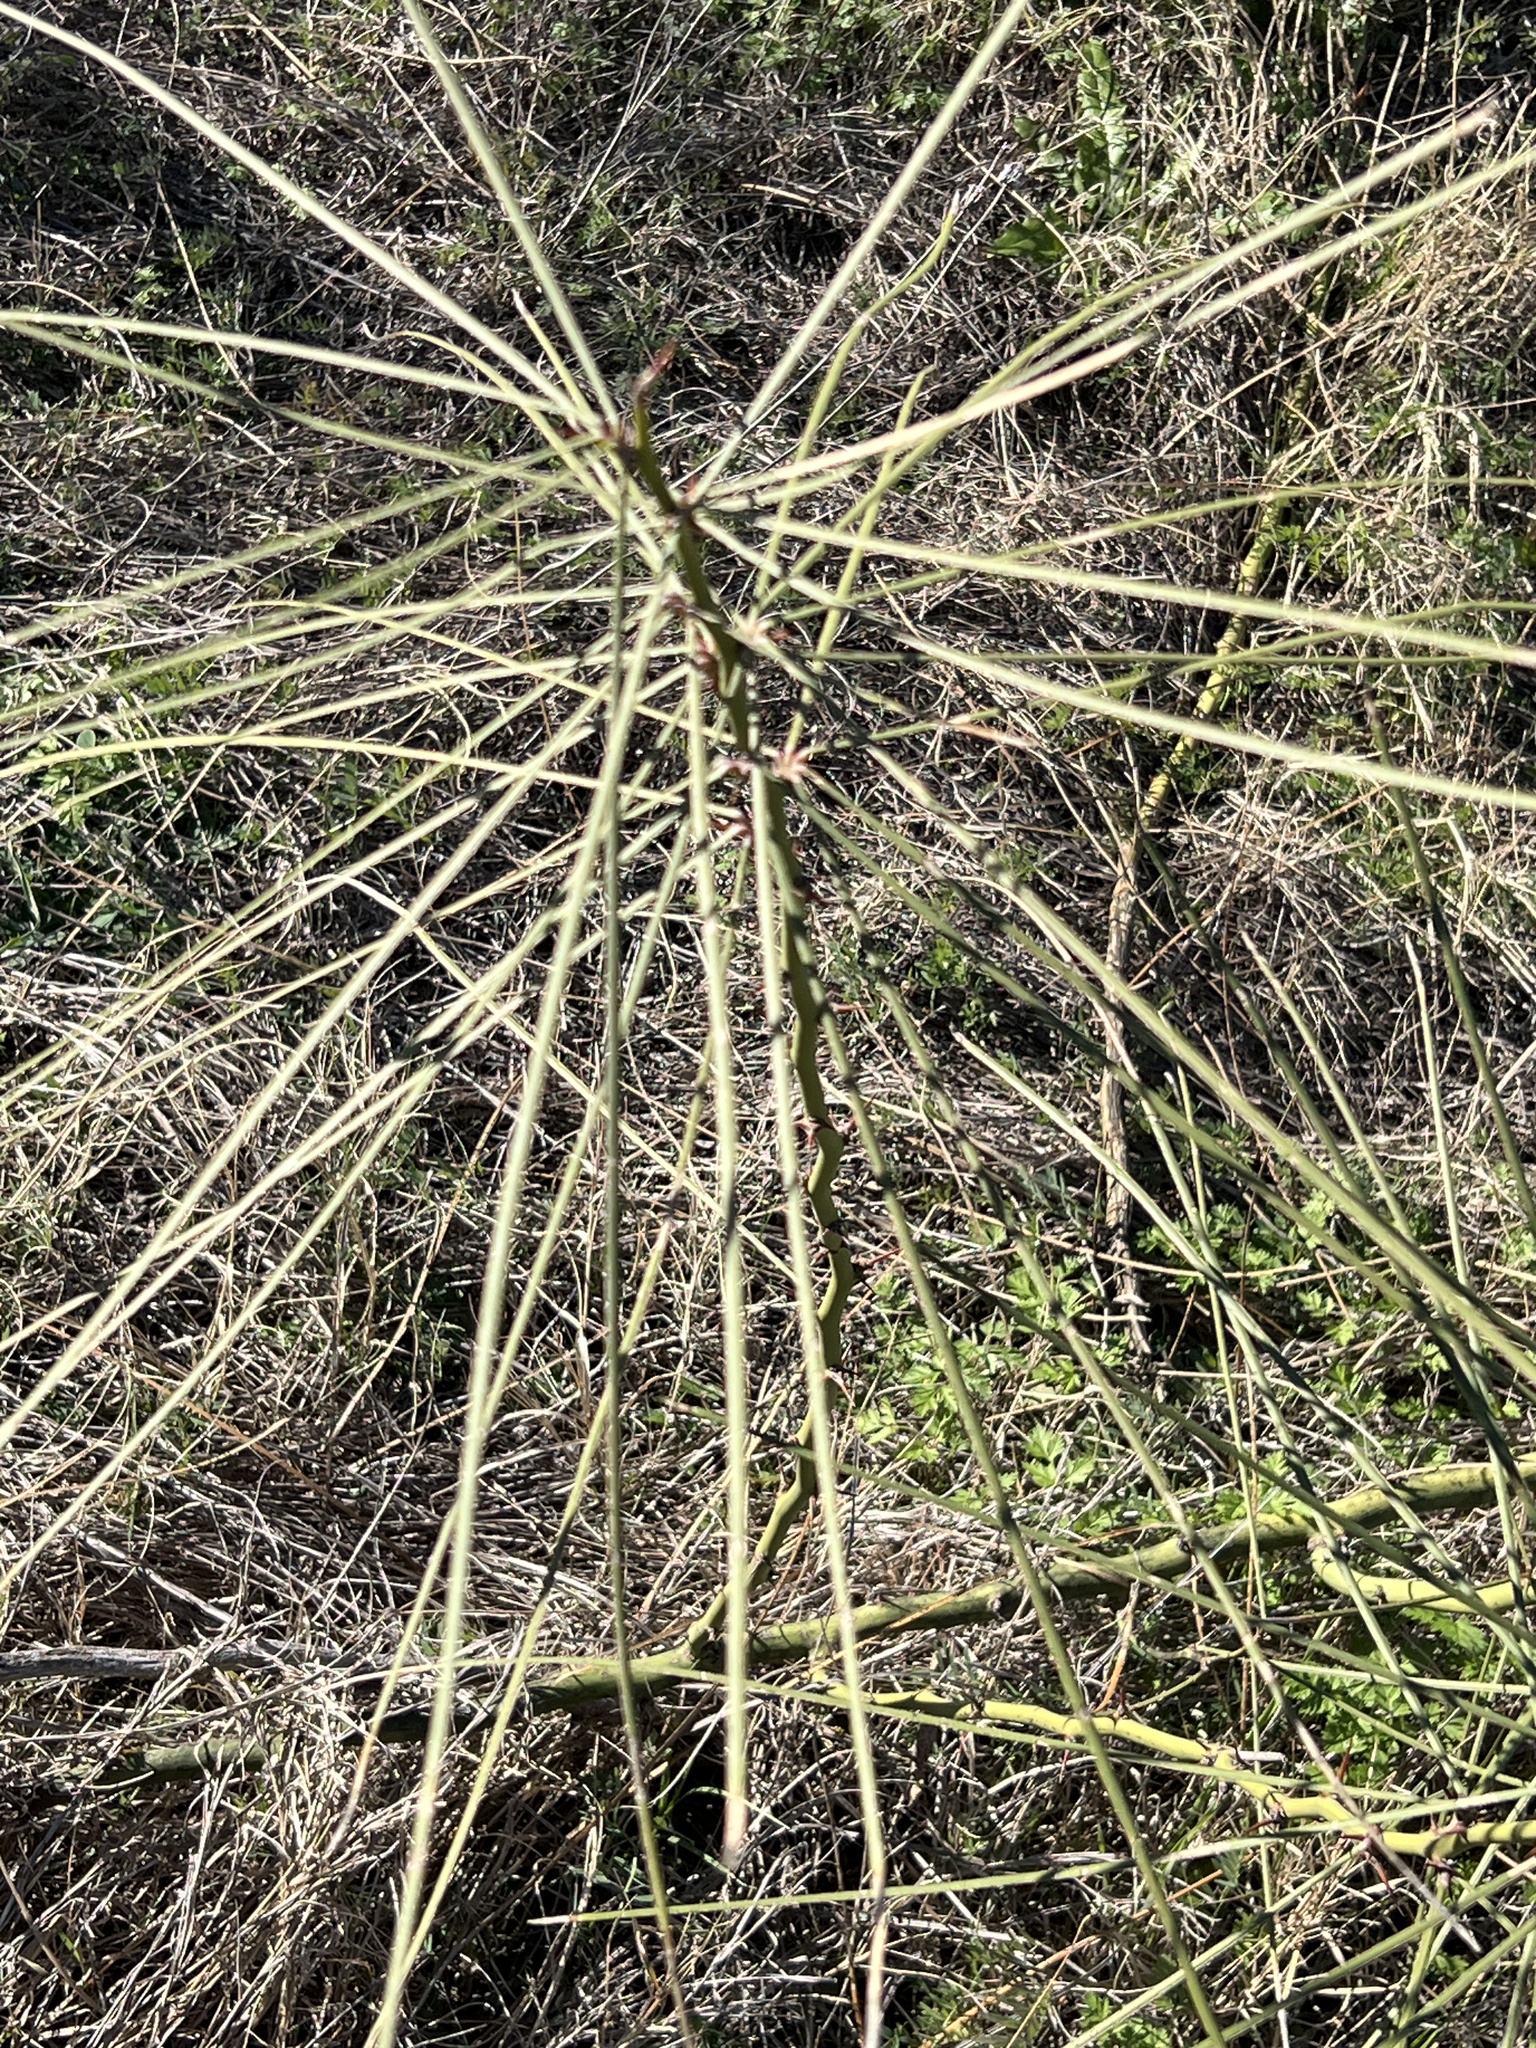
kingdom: Plantae
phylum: Tracheophyta
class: Magnoliopsida
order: Fabales
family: Fabaceae
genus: Parkinsonia
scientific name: Parkinsonia aculeata
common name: Jerusalem thorn
